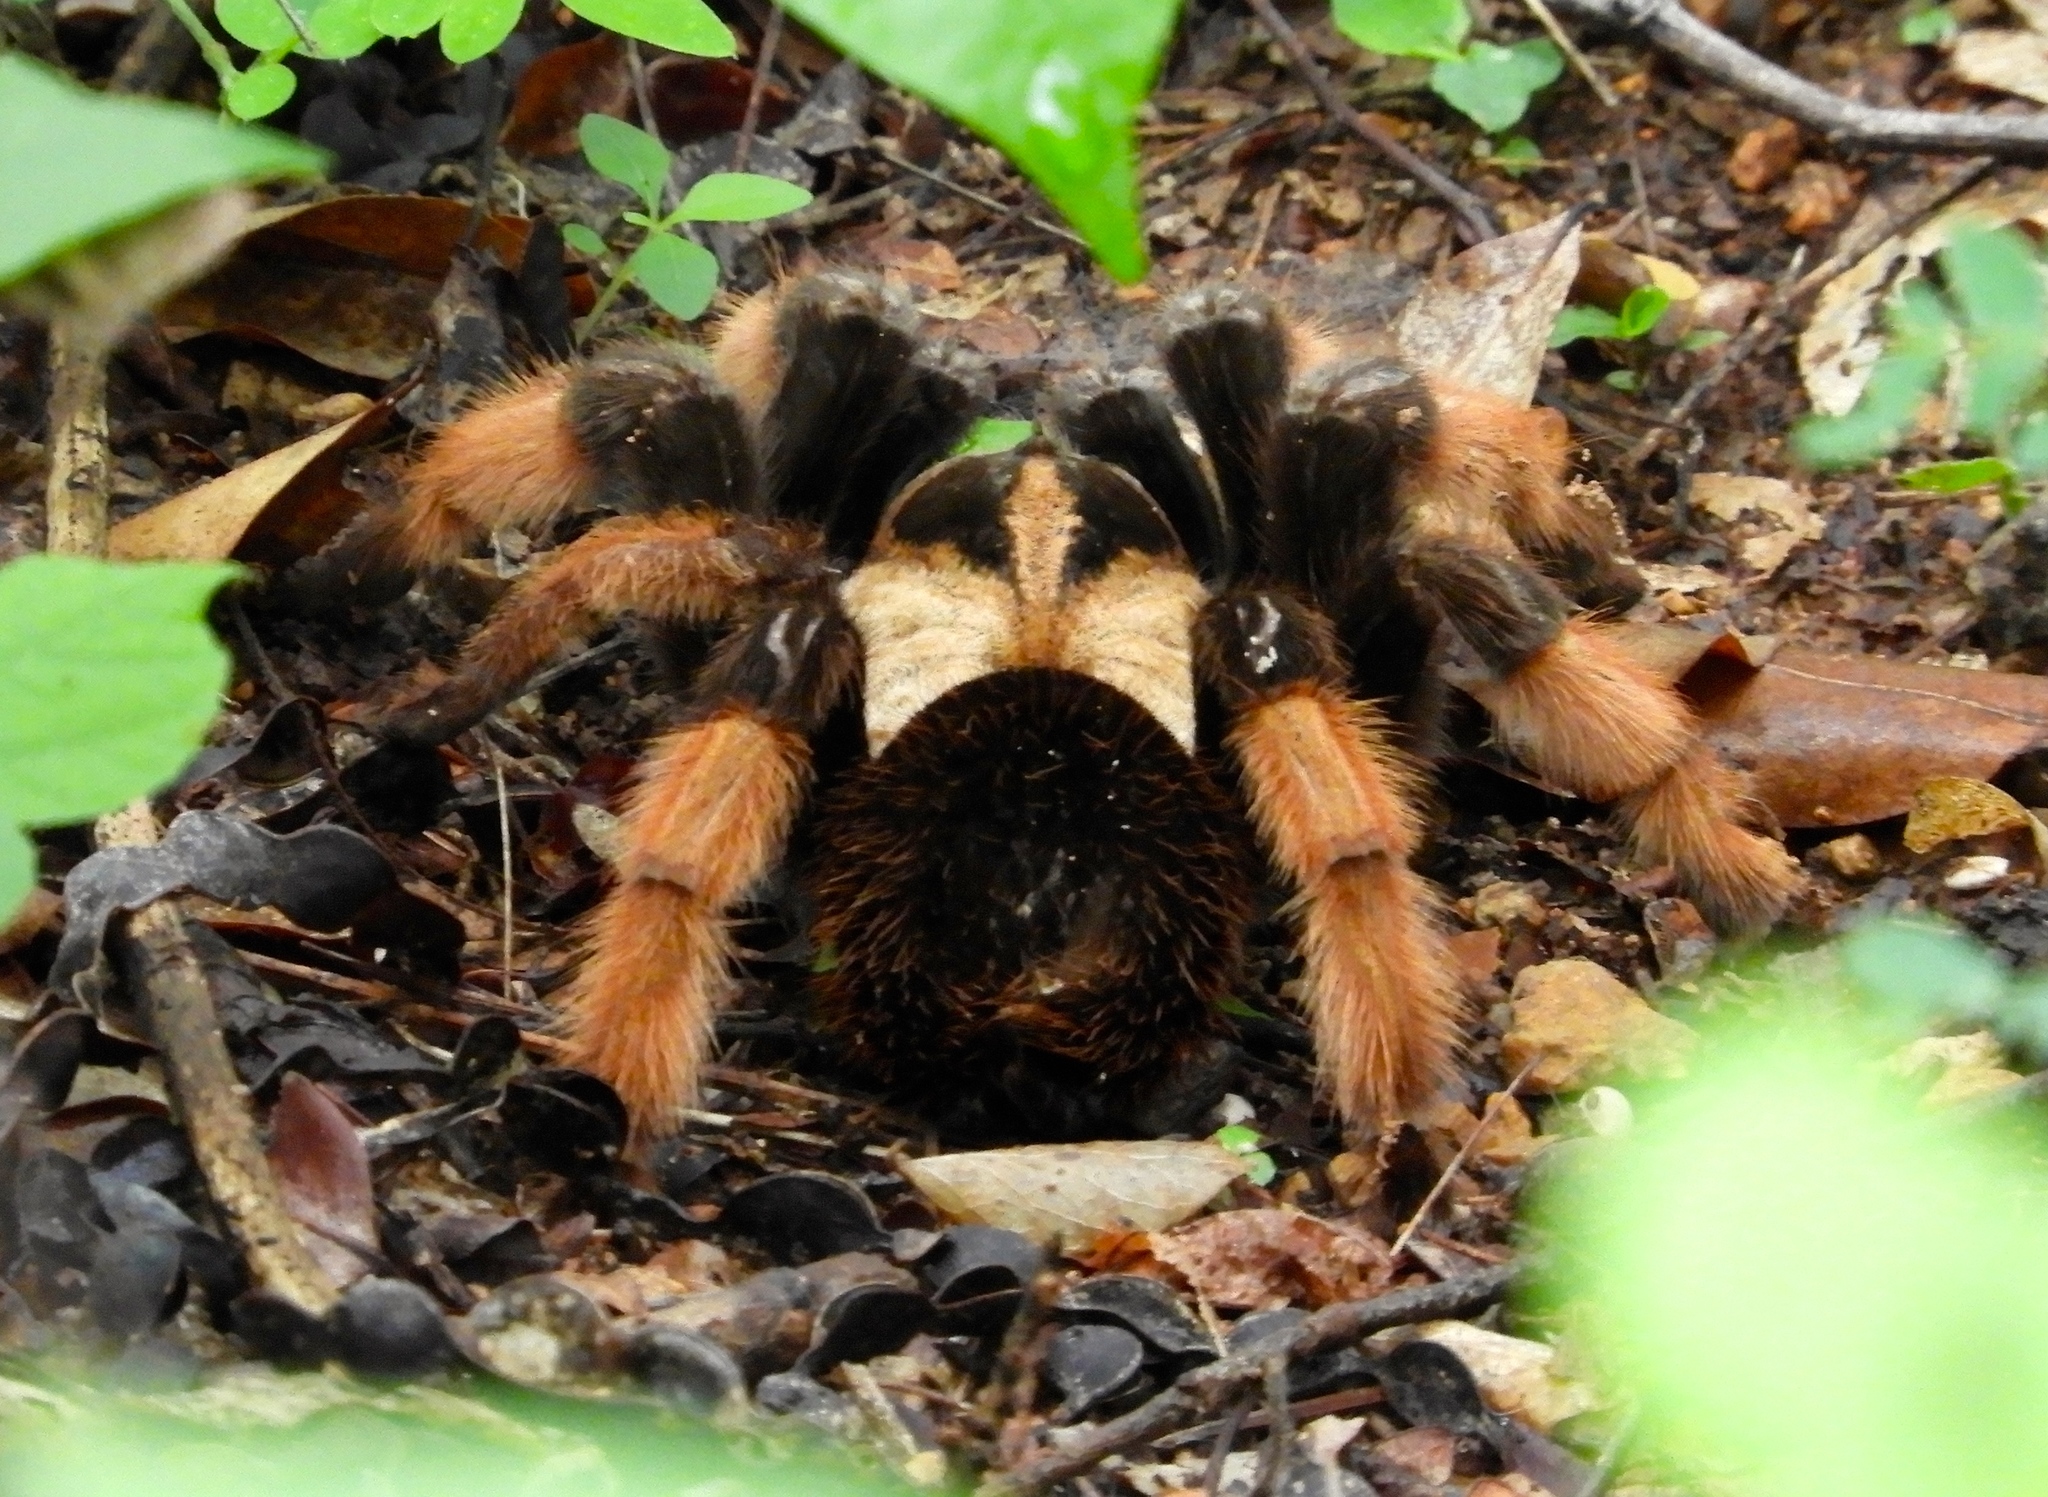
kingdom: Animalia
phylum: Arthropoda
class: Arachnida
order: Araneae
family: Theraphosidae
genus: Brachypelma
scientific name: Brachypelma emilia
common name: Mexican redleg
